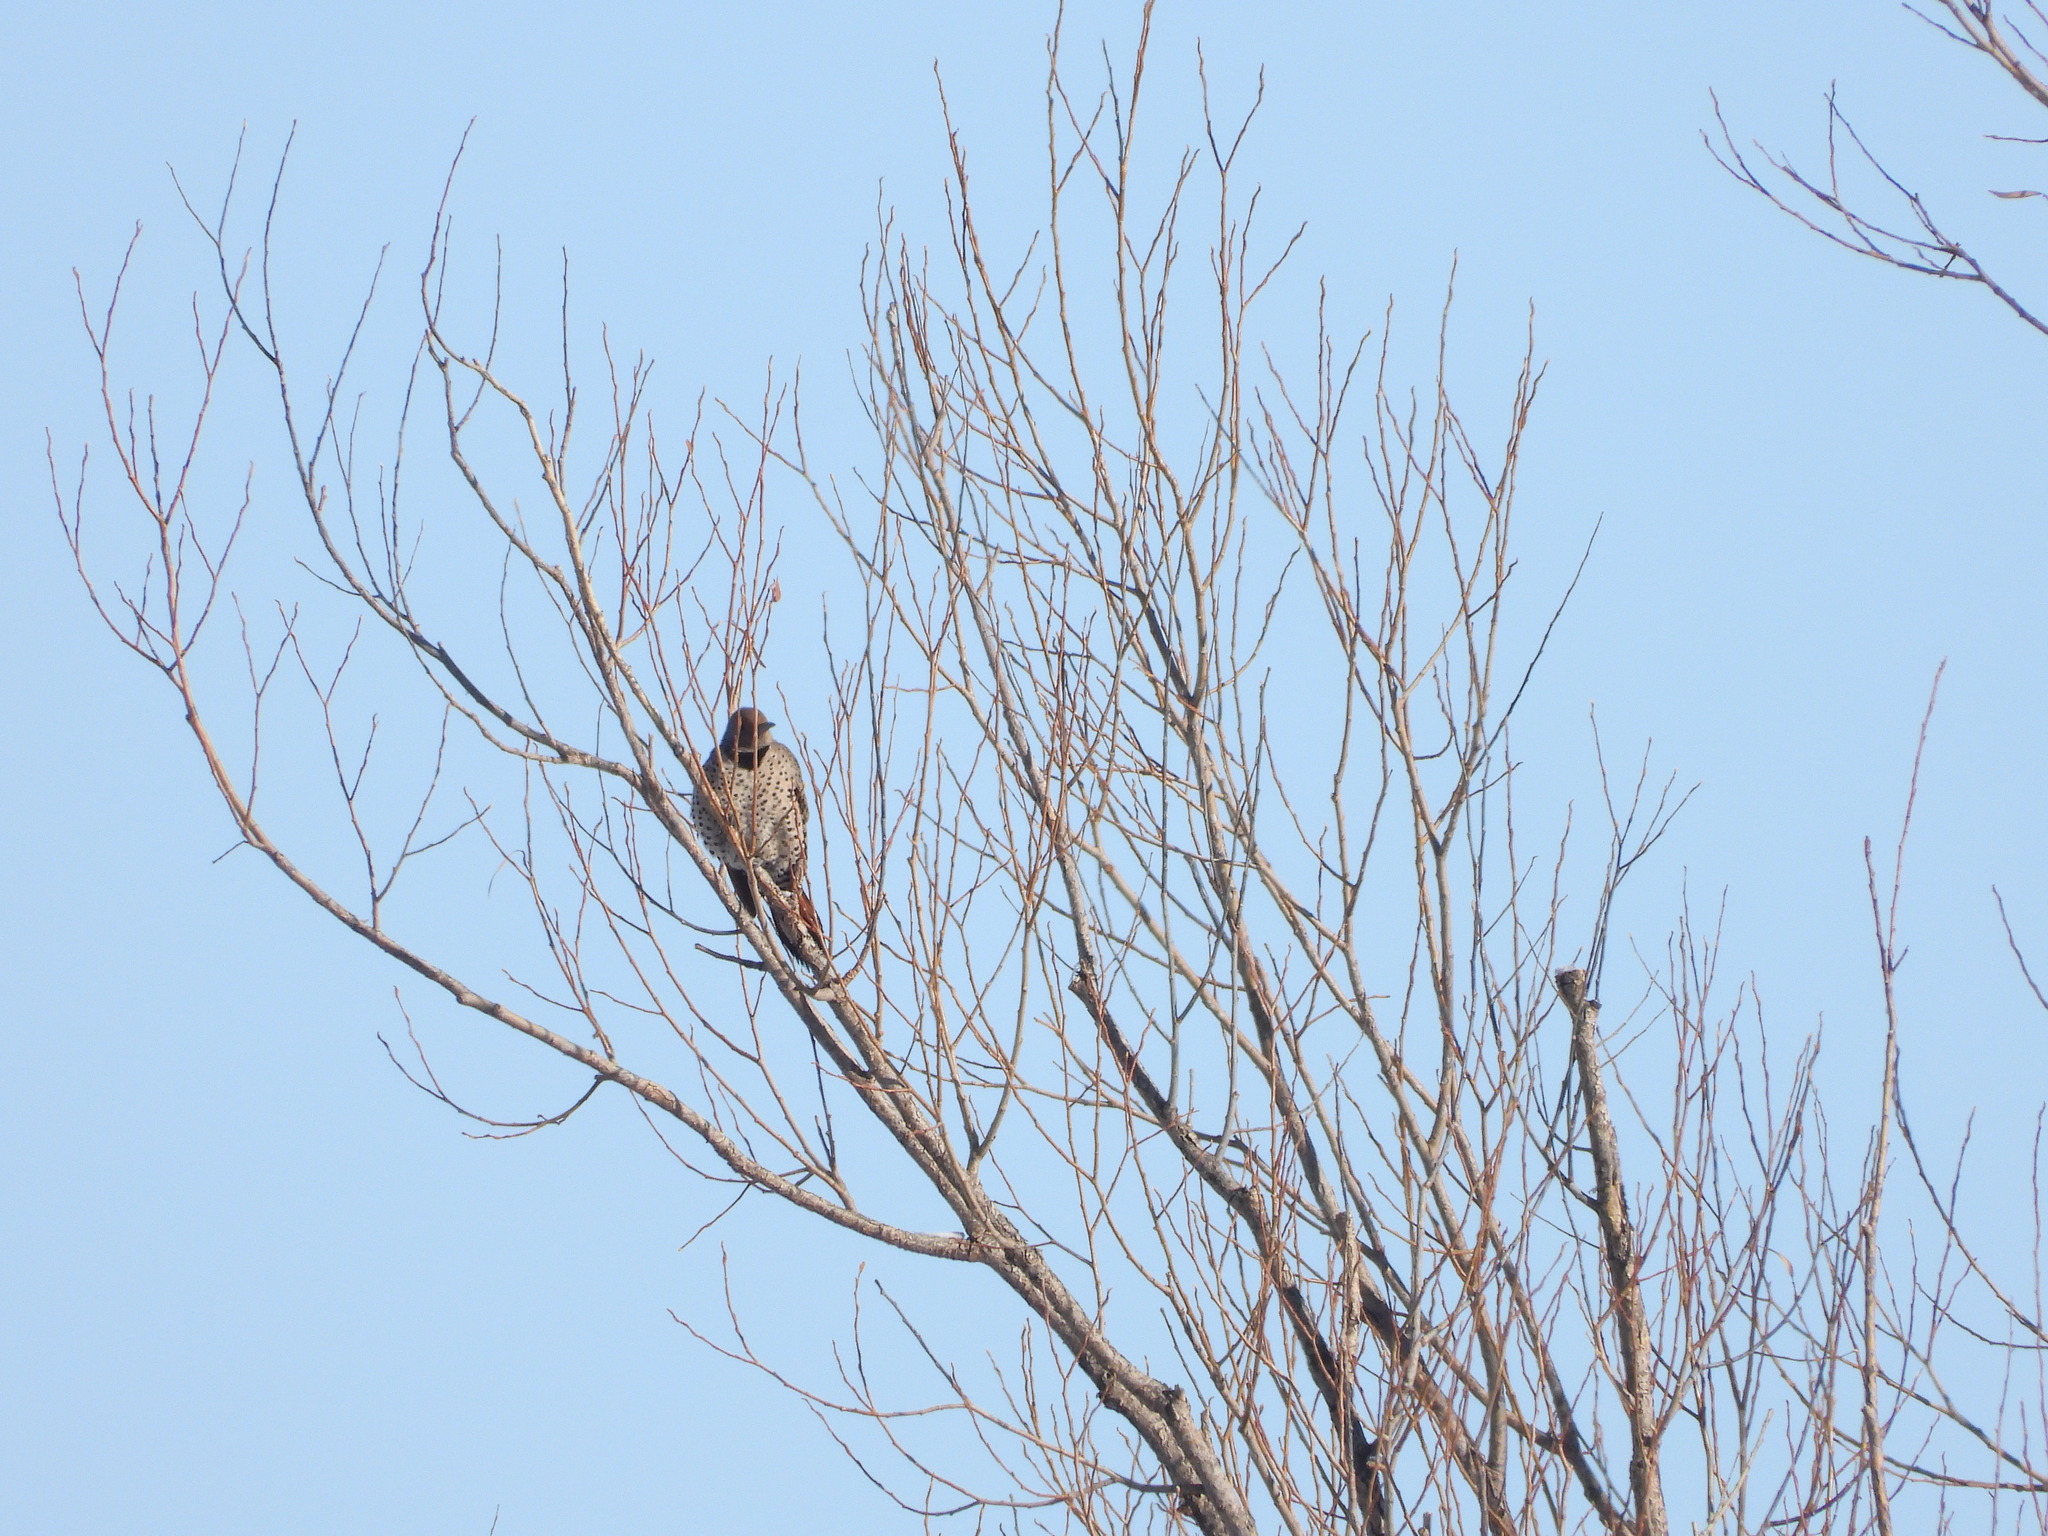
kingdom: Animalia
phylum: Chordata
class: Aves
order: Piciformes
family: Picidae
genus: Colaptes
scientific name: Colaptes auratus
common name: Northern flicker
